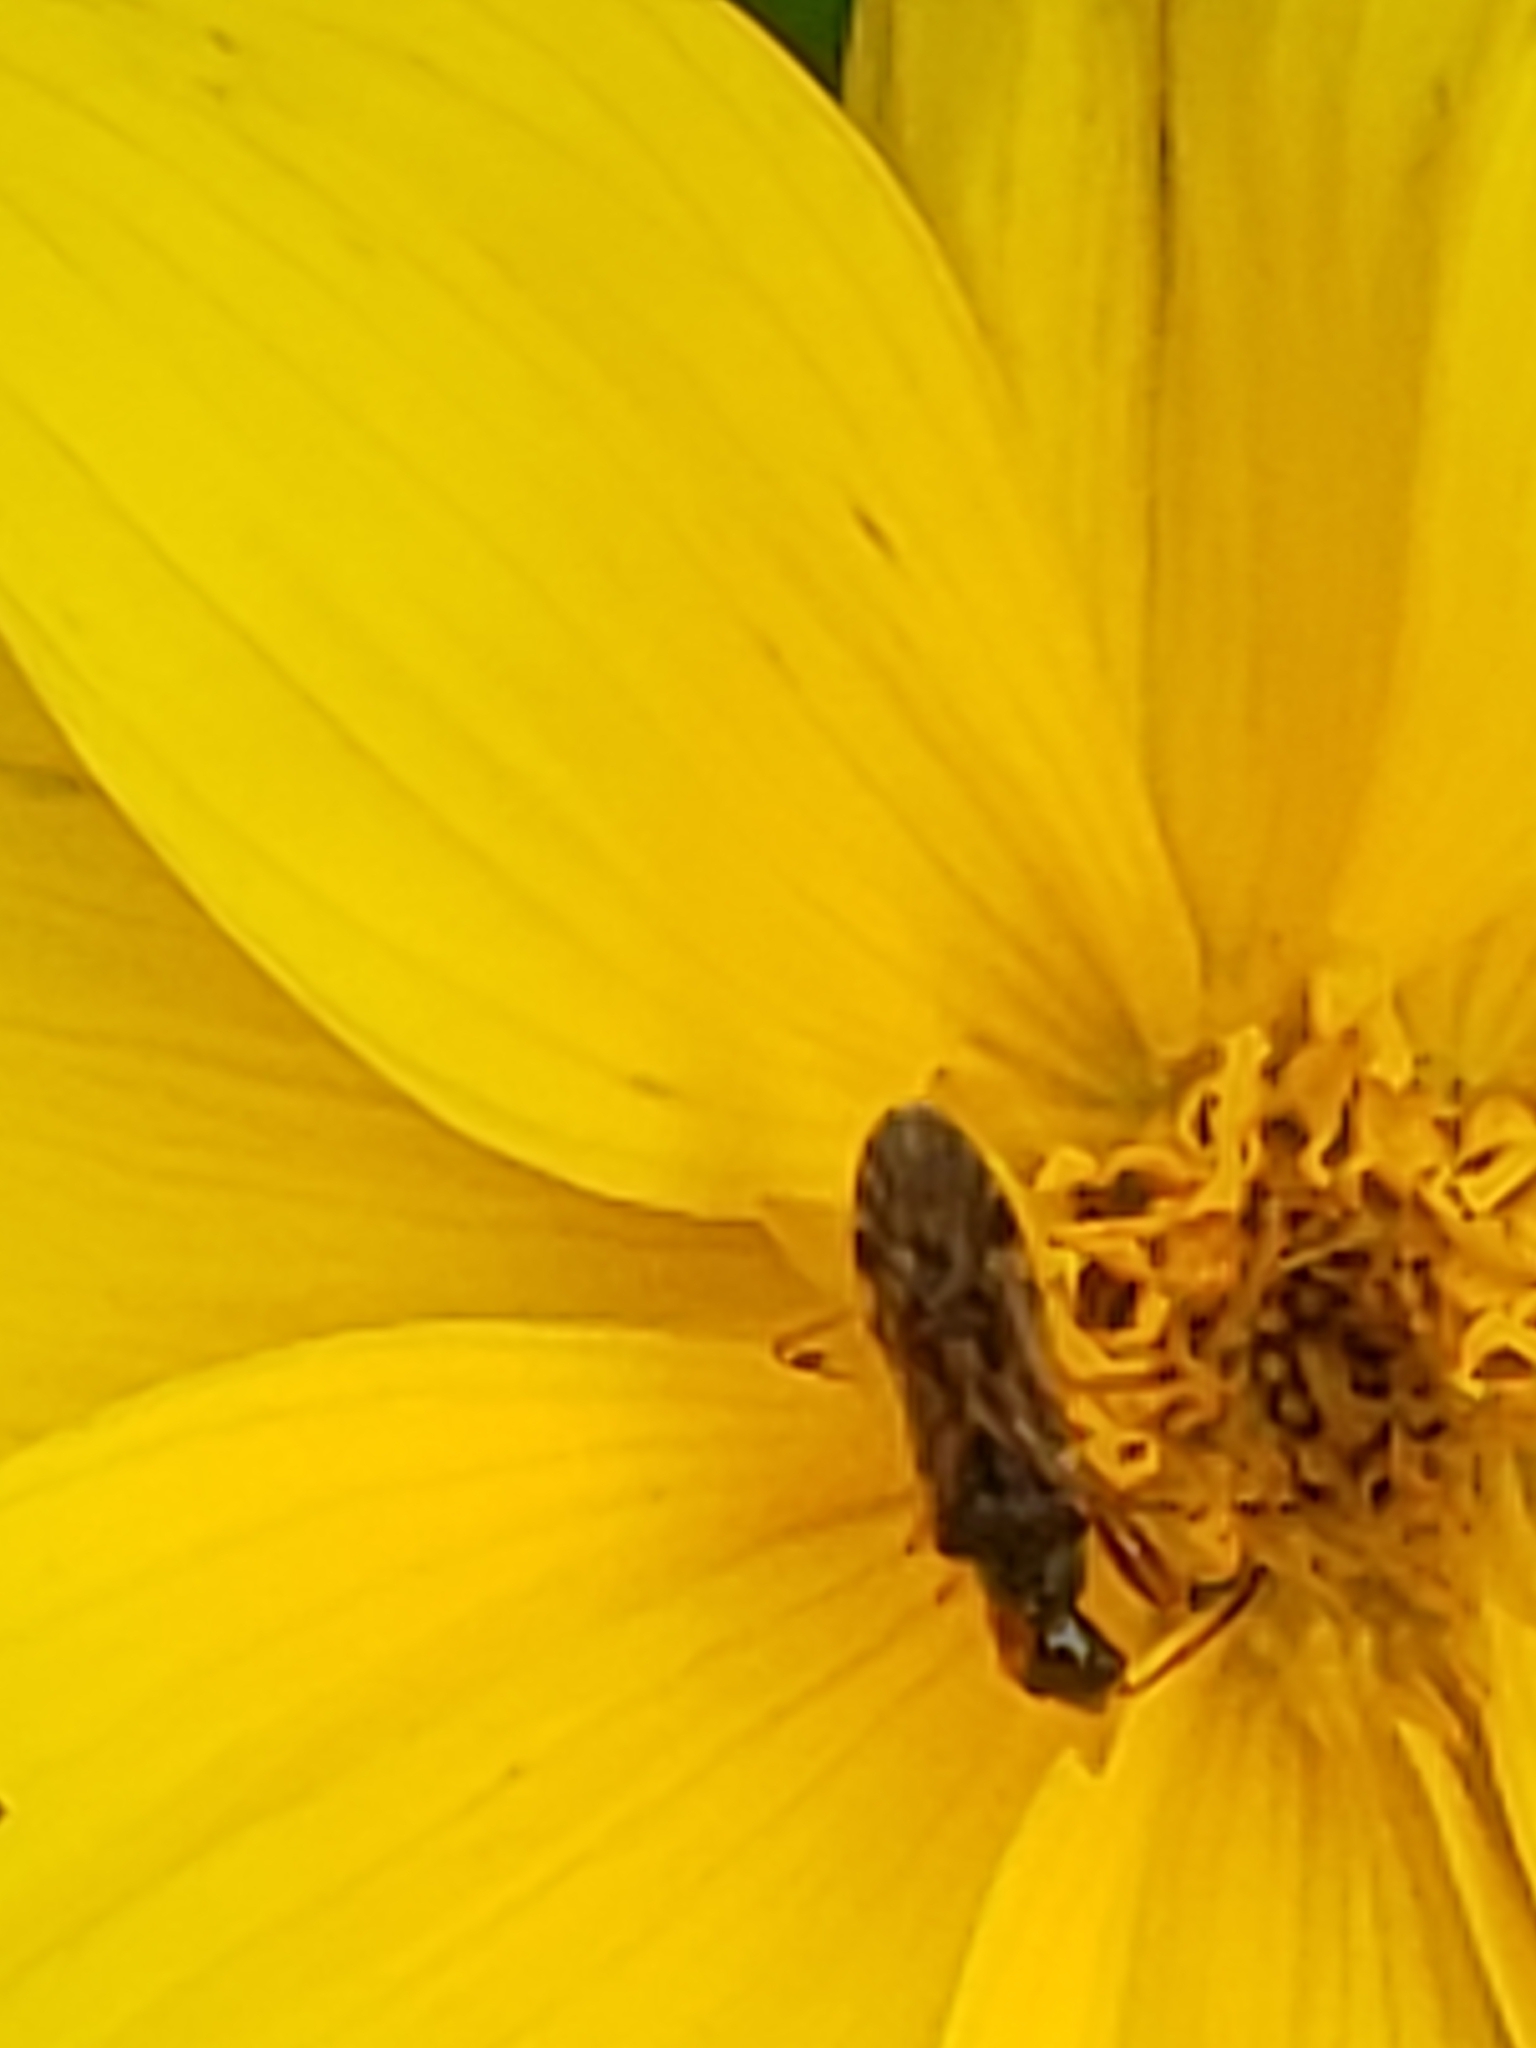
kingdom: Animalia
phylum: Arthropoda
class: Insecta
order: Hemiptera
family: Rhyparochromidae
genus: Heraeus
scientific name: Heraeus plebejus
